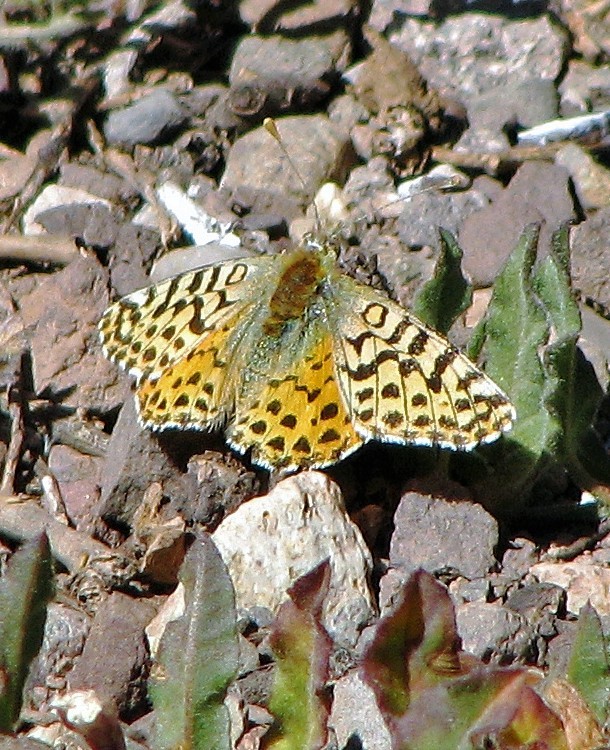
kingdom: Animalia
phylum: Arthropoda
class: Insecta
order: Lepidoptera
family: Nymphalidae
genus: Issoria
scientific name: Issoria Yramea lathonoides
